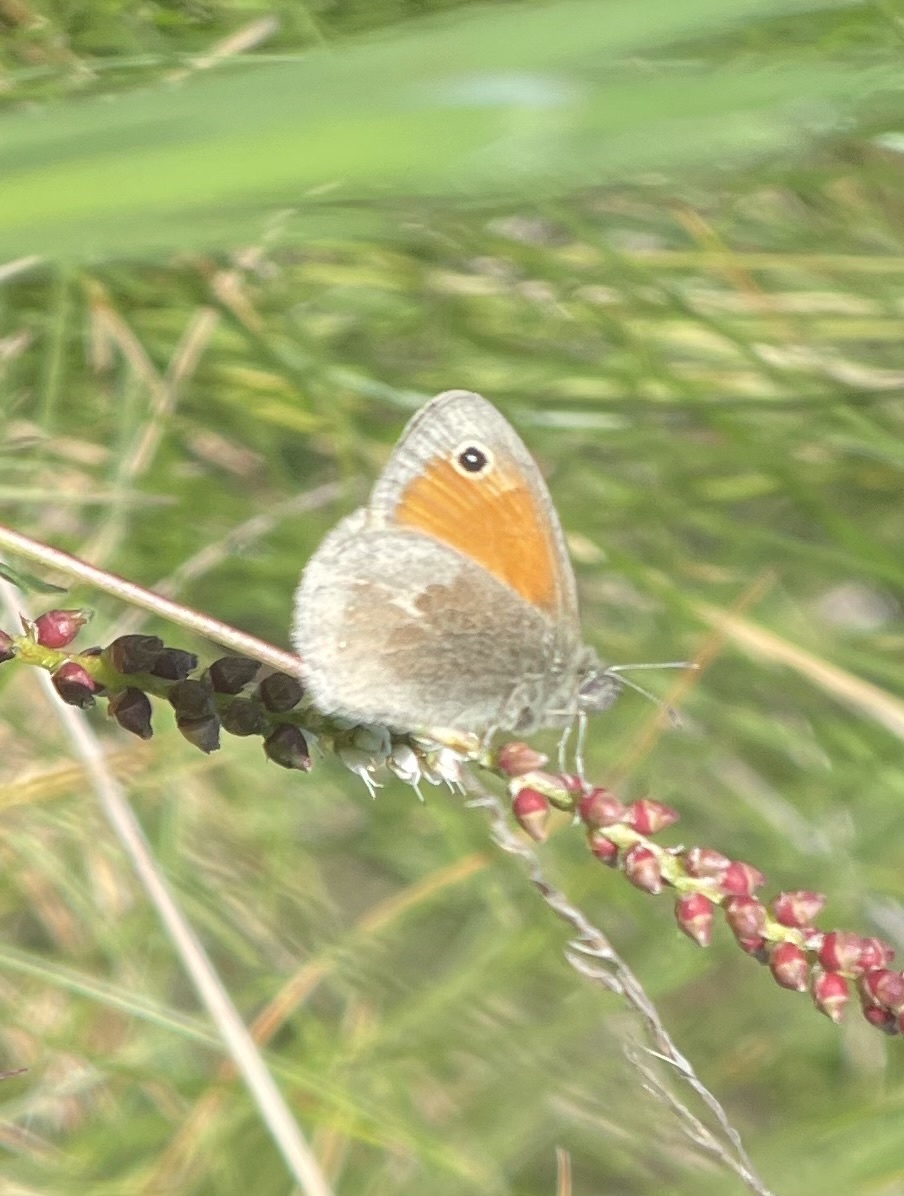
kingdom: Animalia
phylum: Arthropoda
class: Insecta
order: Lepidoptera
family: Nymphalidae
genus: Coenonympha
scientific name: Coenonympha pamphilus
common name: Small heath
